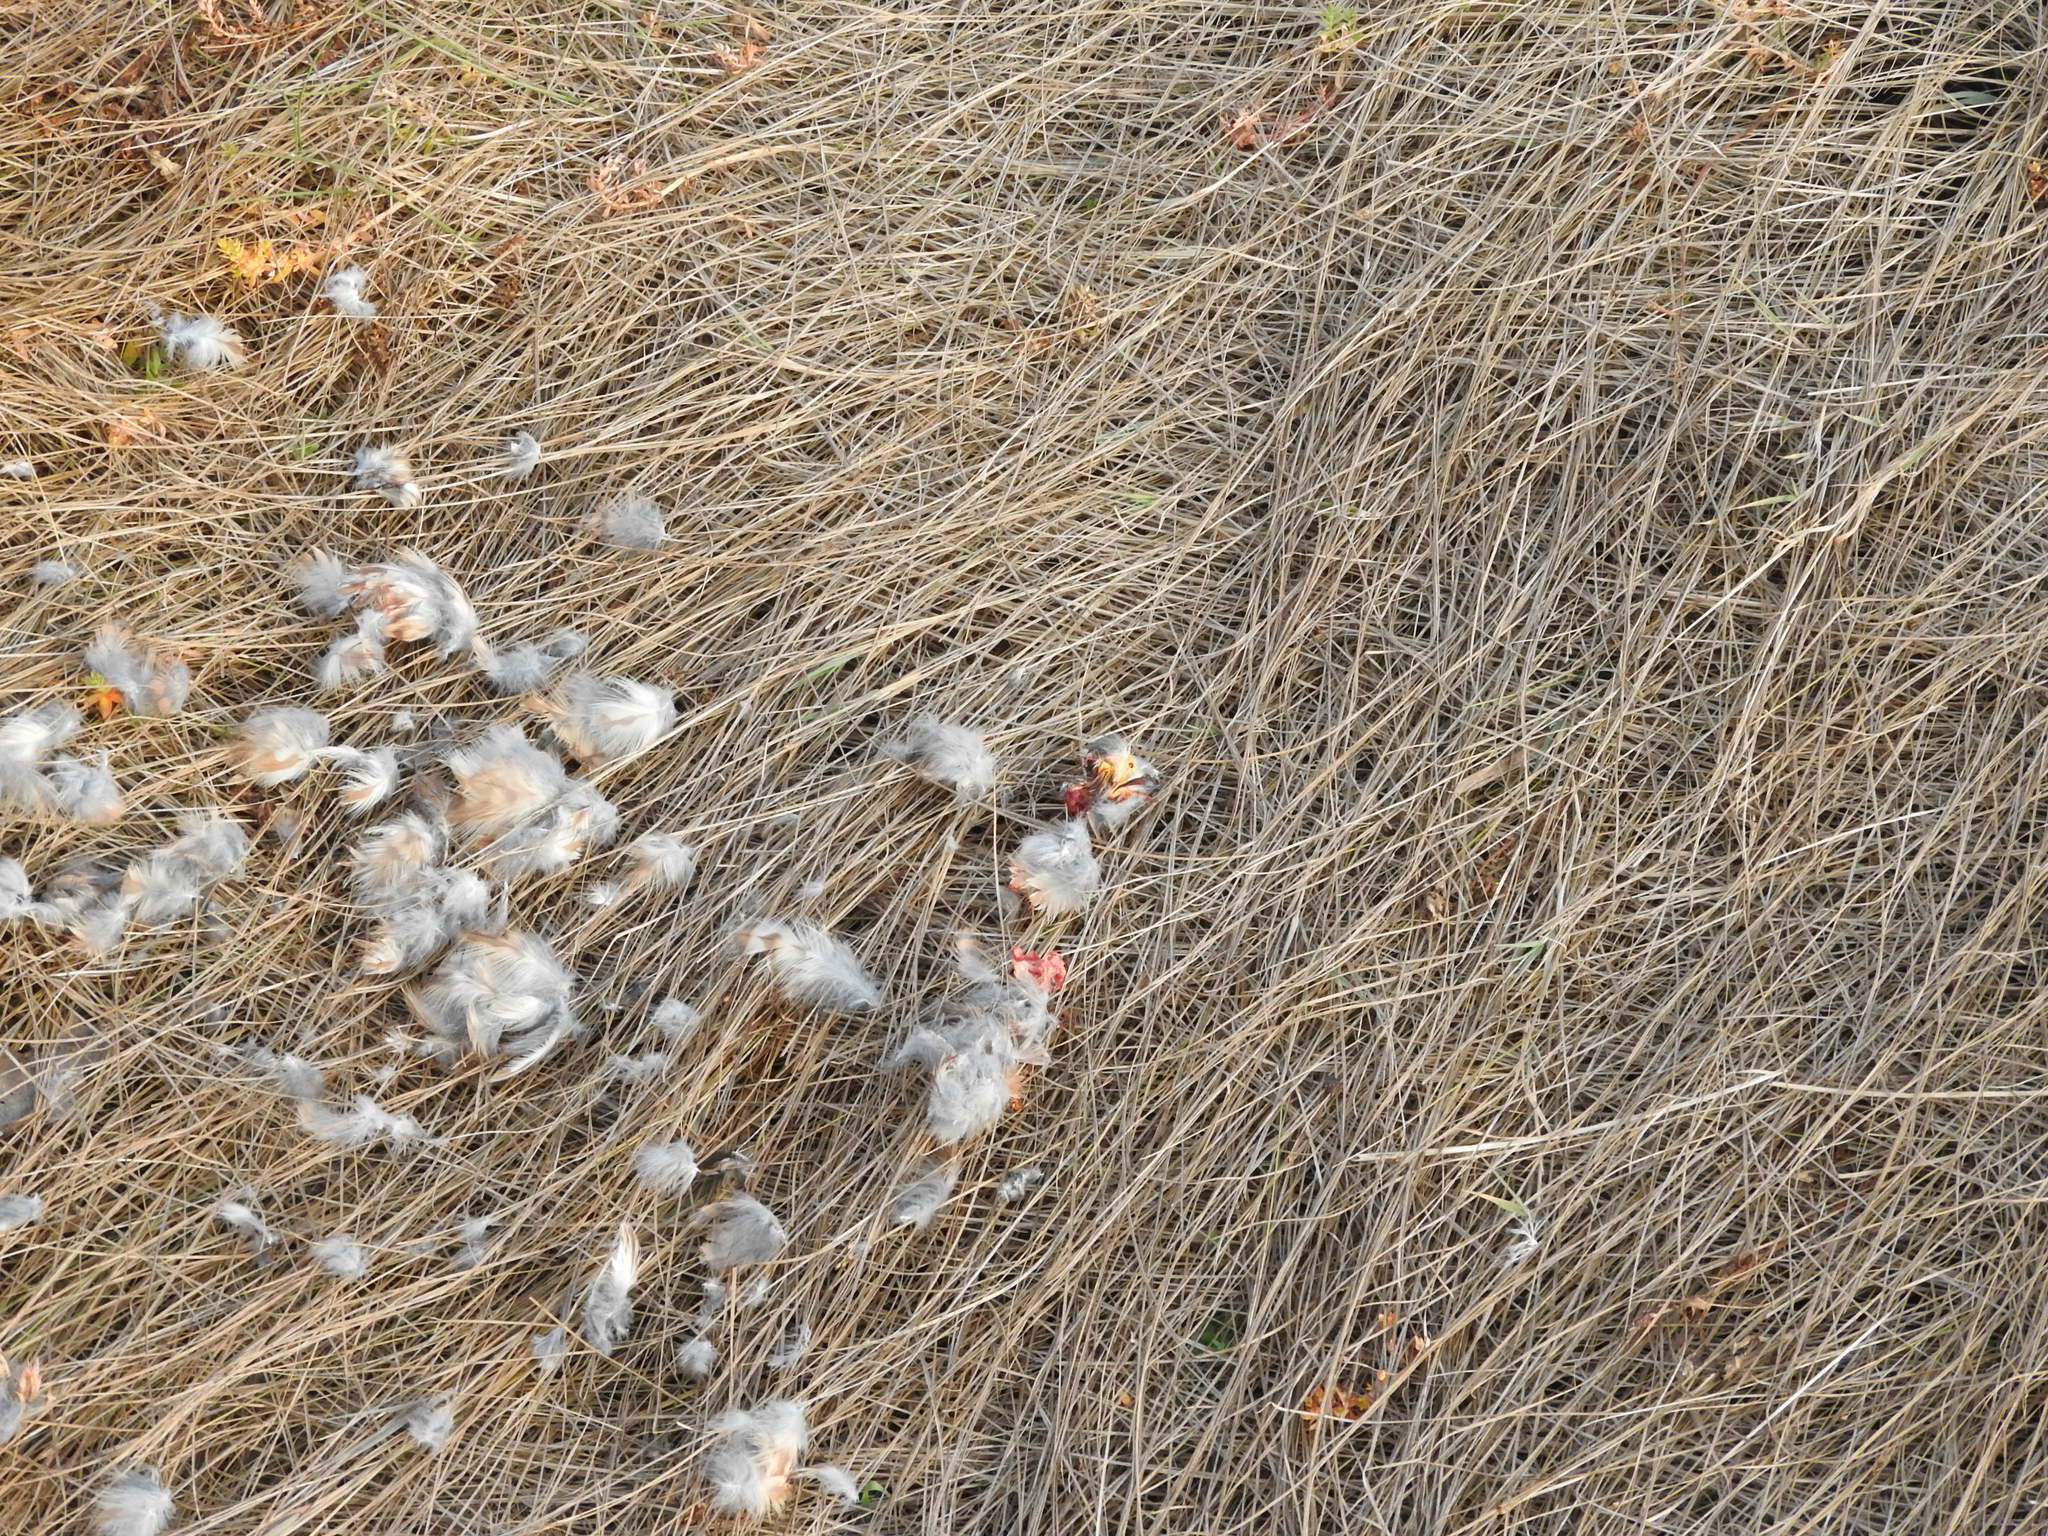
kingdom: Animalia
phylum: Chordata
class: Aves
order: Falconiformes
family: Falconidae
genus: Falco
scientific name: Falco sparverius
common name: American kestrel
